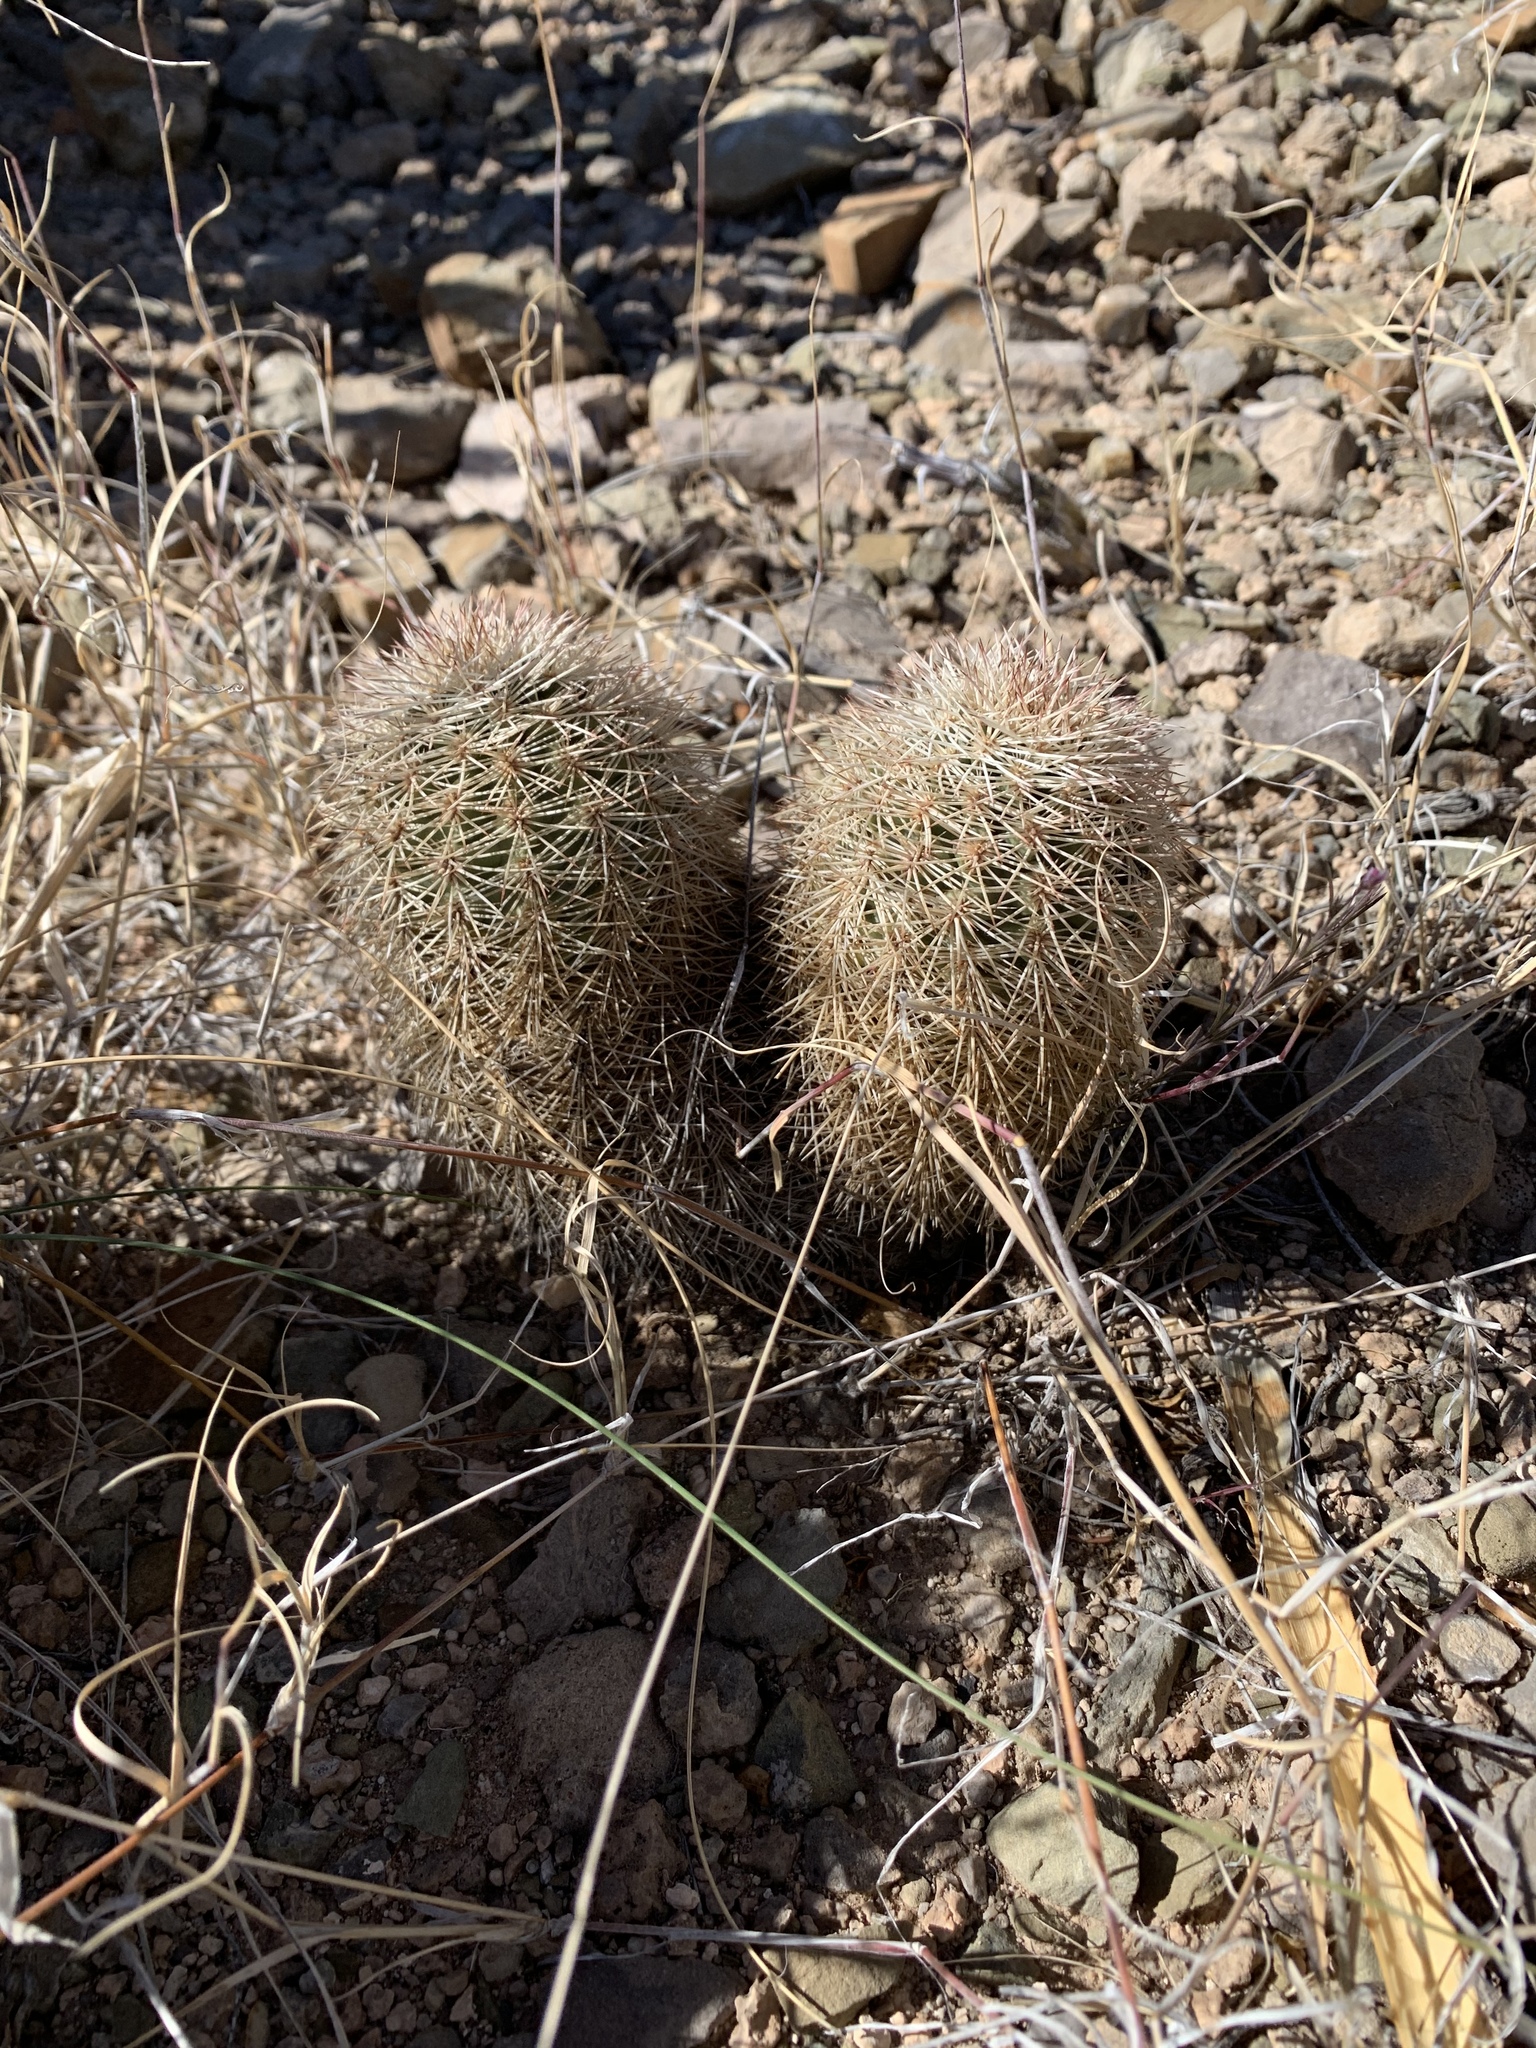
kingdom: Plantae
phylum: Tracheophyta
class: Magnoliopsida
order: Caryophyllales
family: Cactaceae
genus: Echinocereus
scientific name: Echinocereus dasyacanthus
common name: Spiny hedgehog cactus
